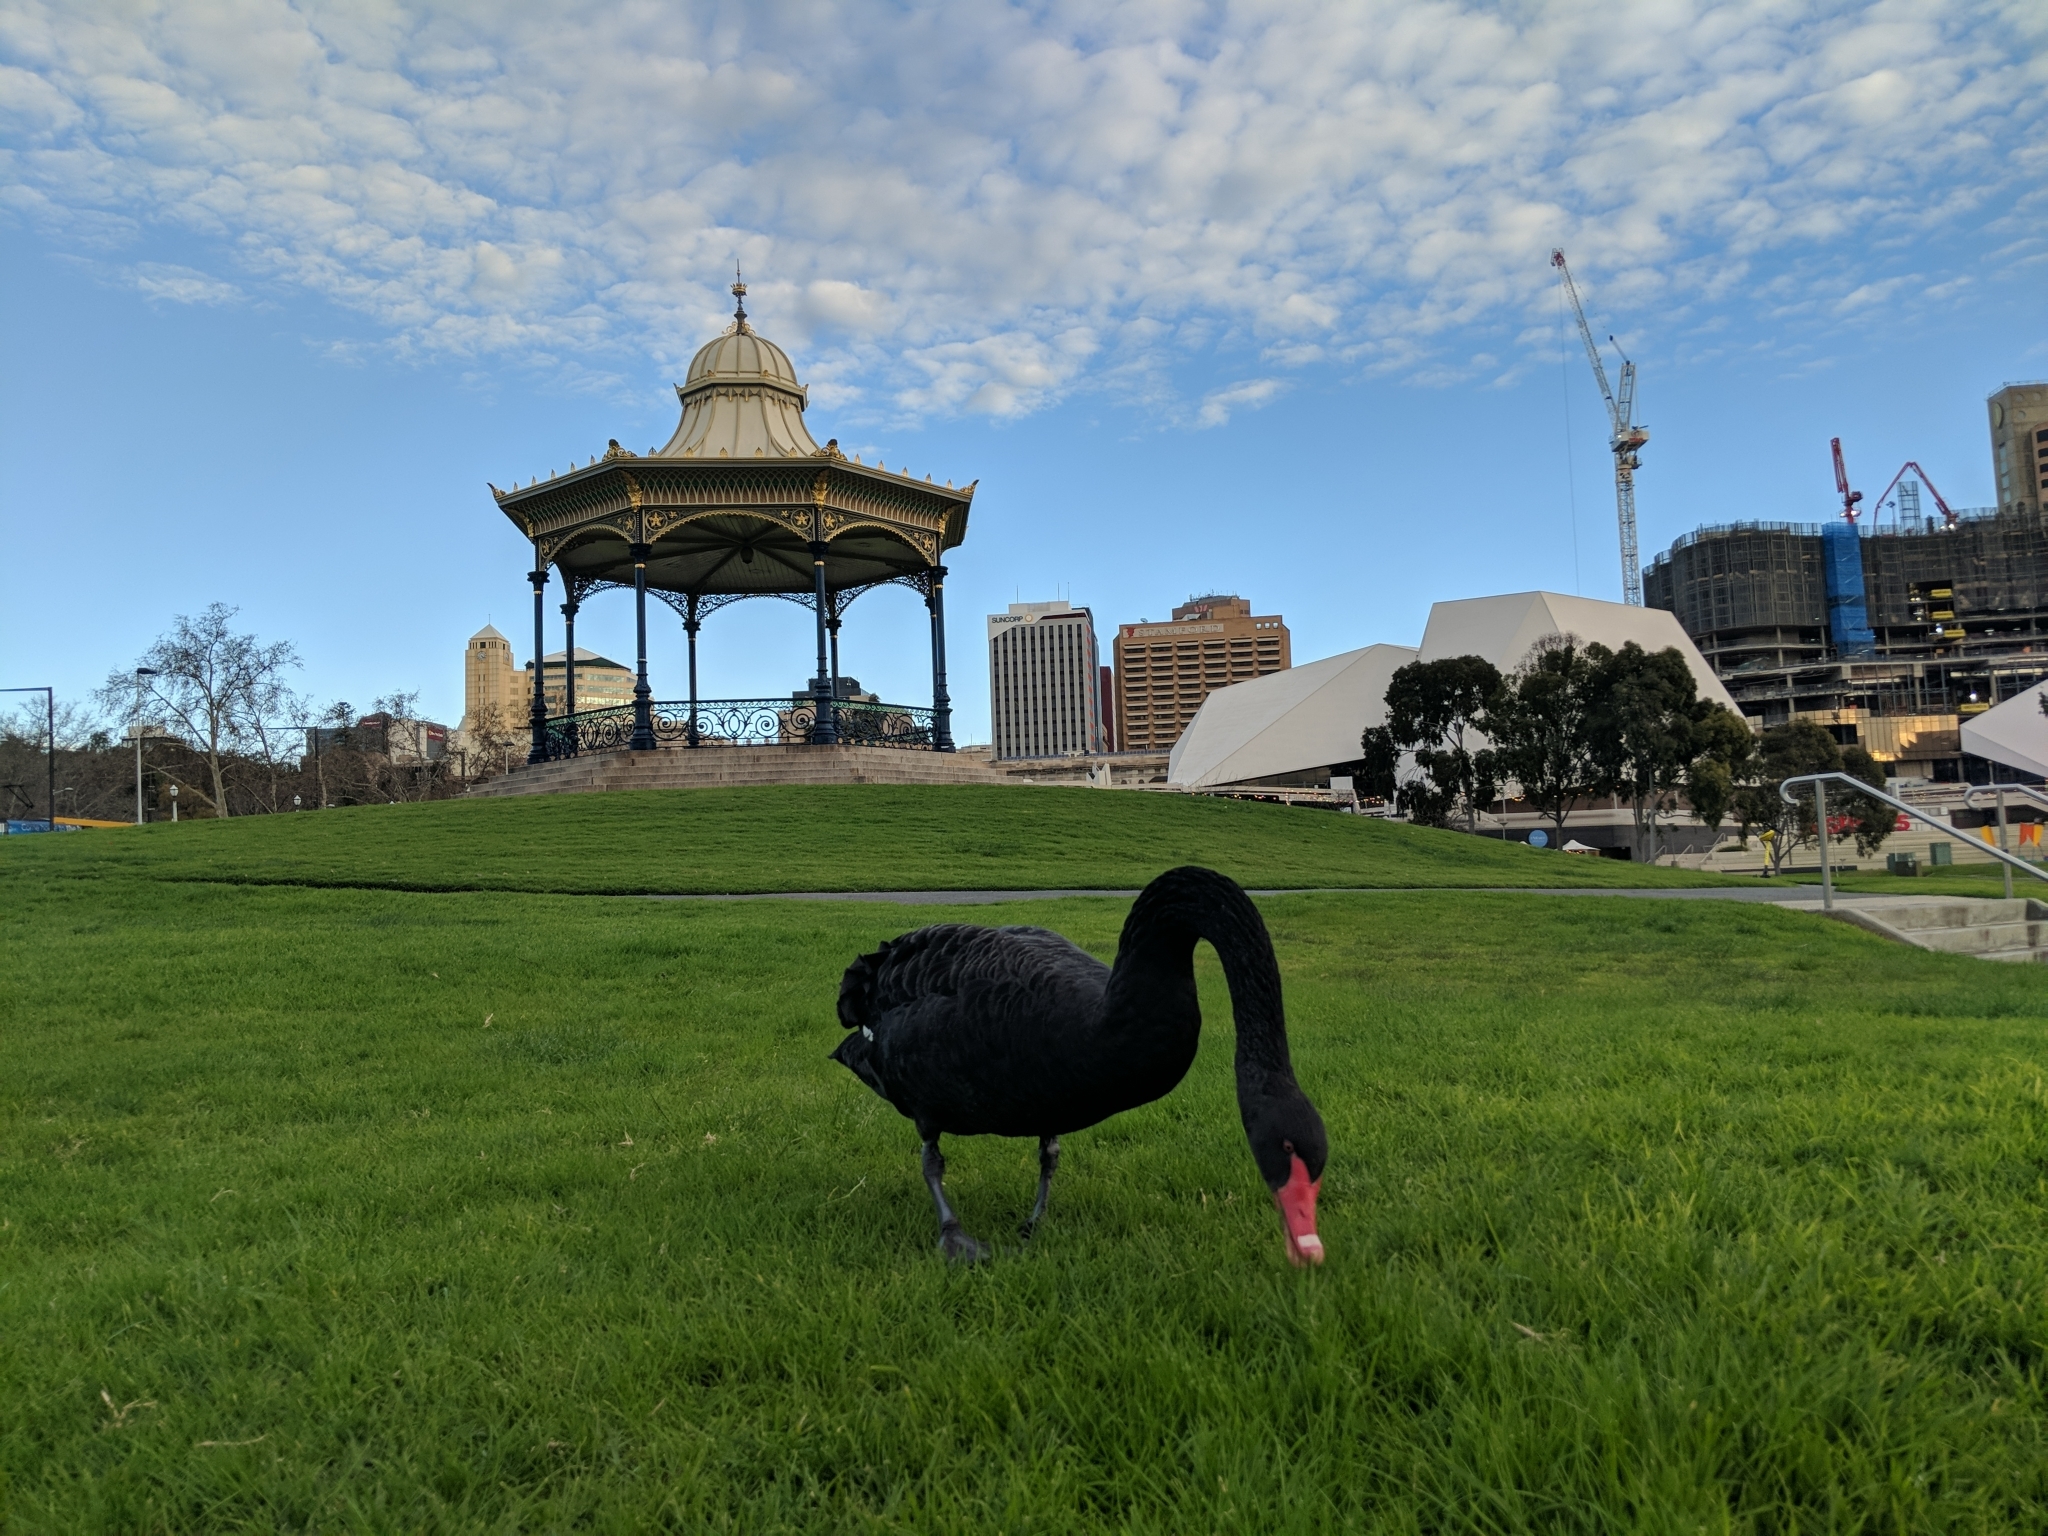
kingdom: Animalia
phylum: Chordata
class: Aves
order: Anseriformes
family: Anatidae
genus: Cygnus
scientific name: Cygnus atratus
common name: Black swan
